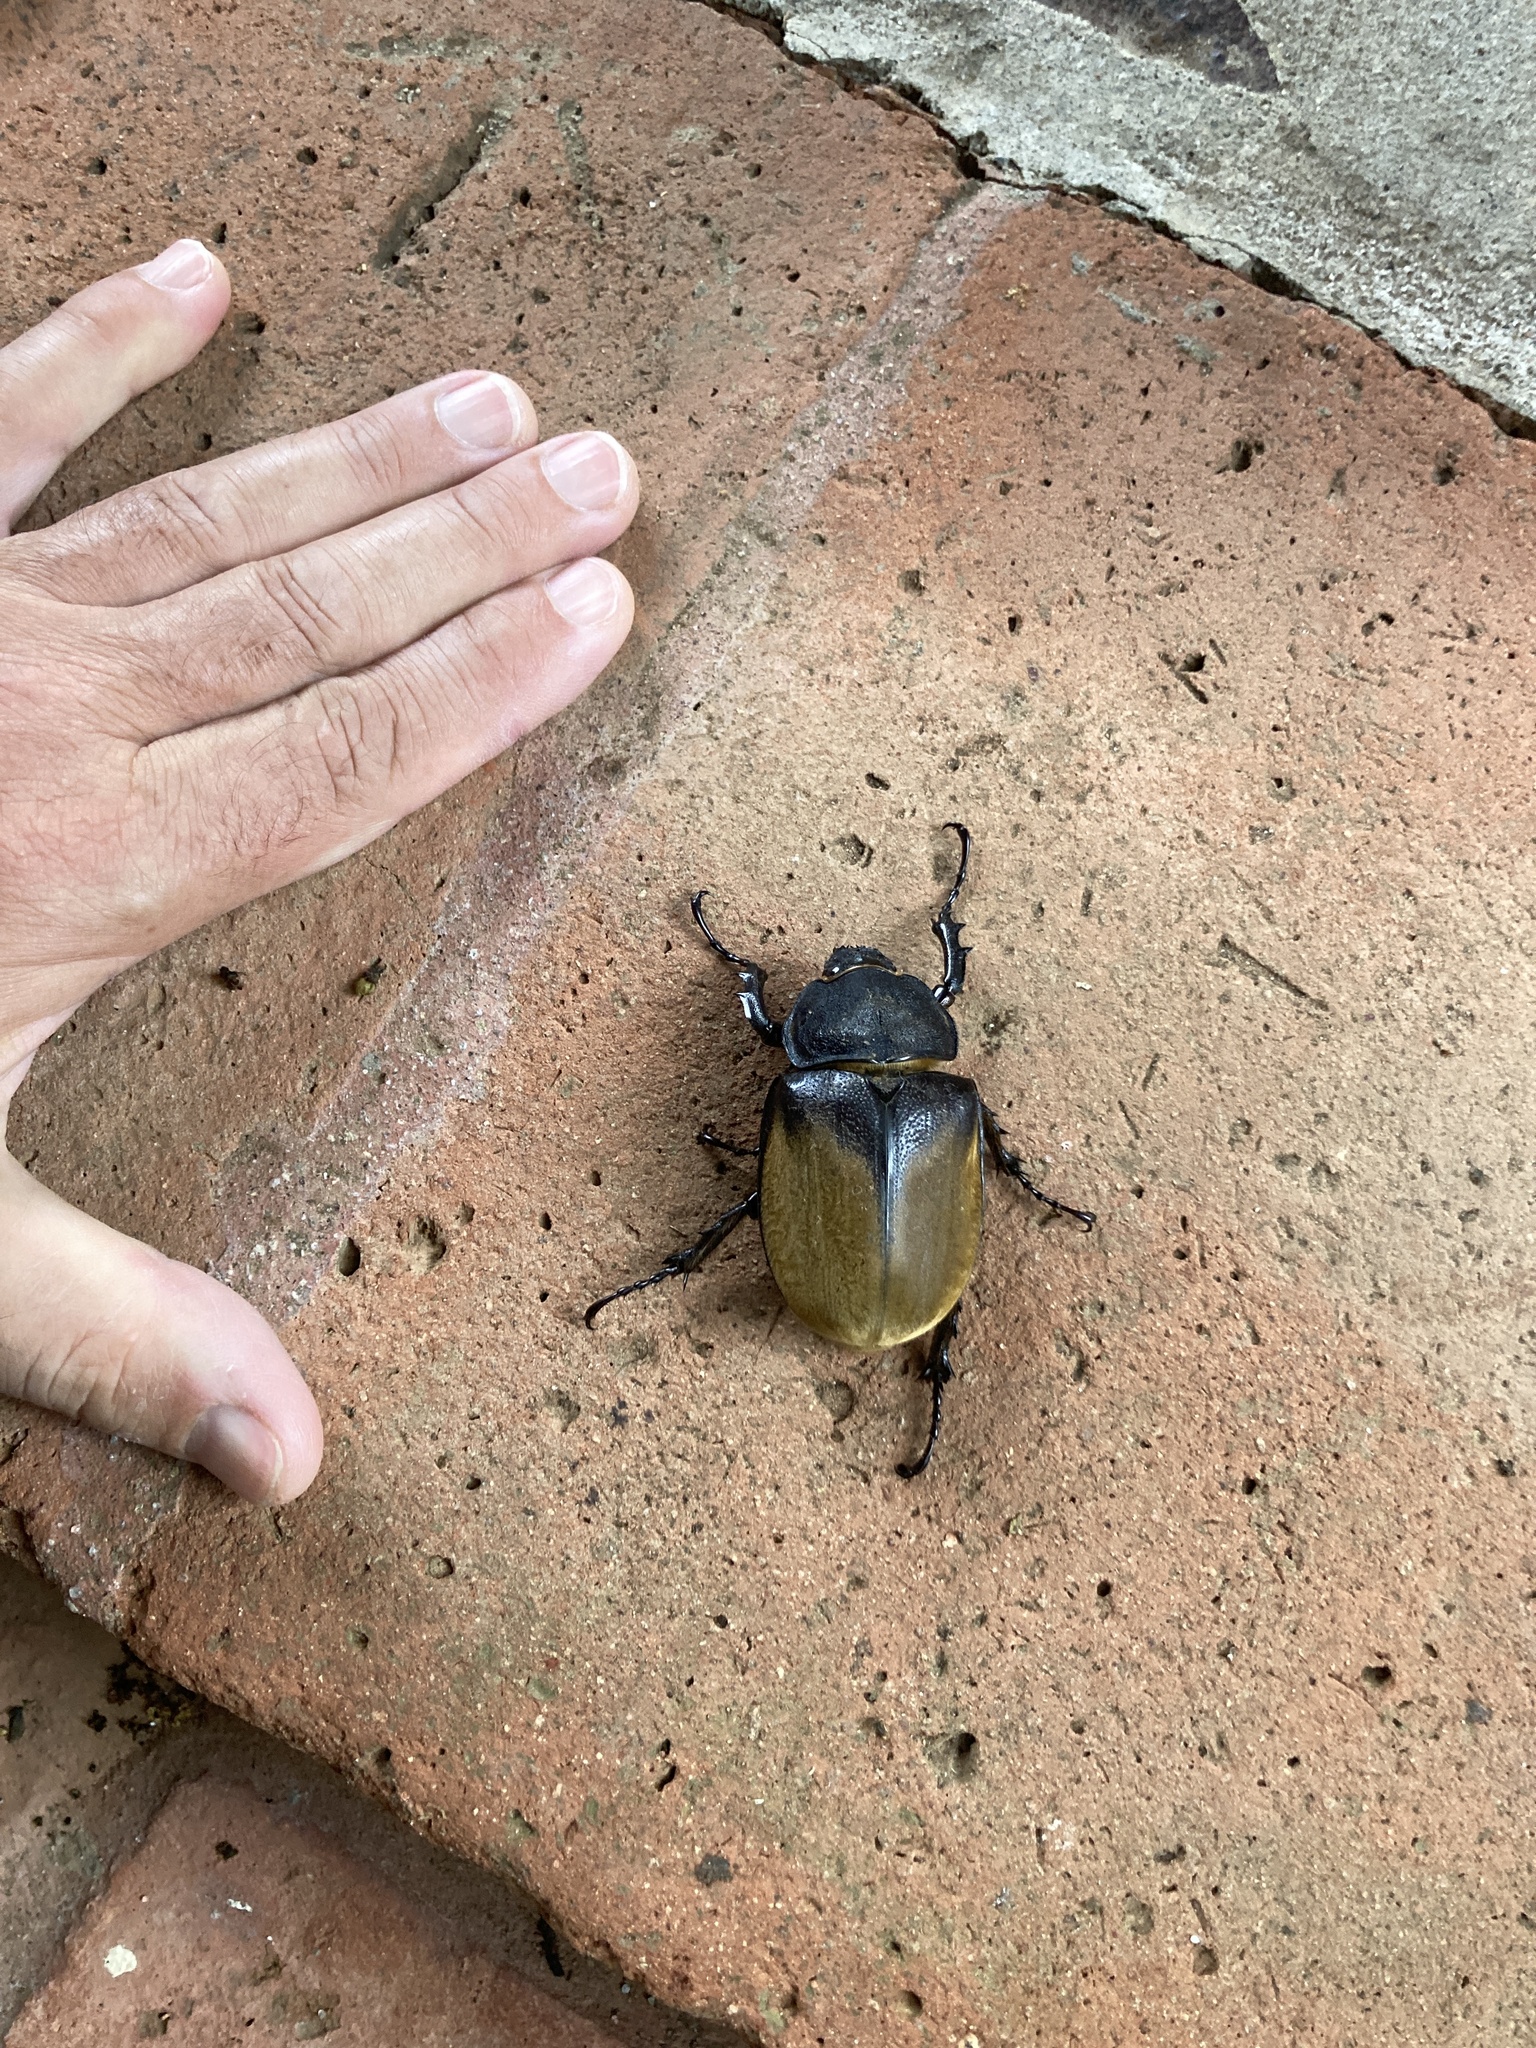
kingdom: Animalia
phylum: Arthropoda
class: Insecta
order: Coleoptera
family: Scarabaeidae
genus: Megasoma
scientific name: Megasoma elephas
